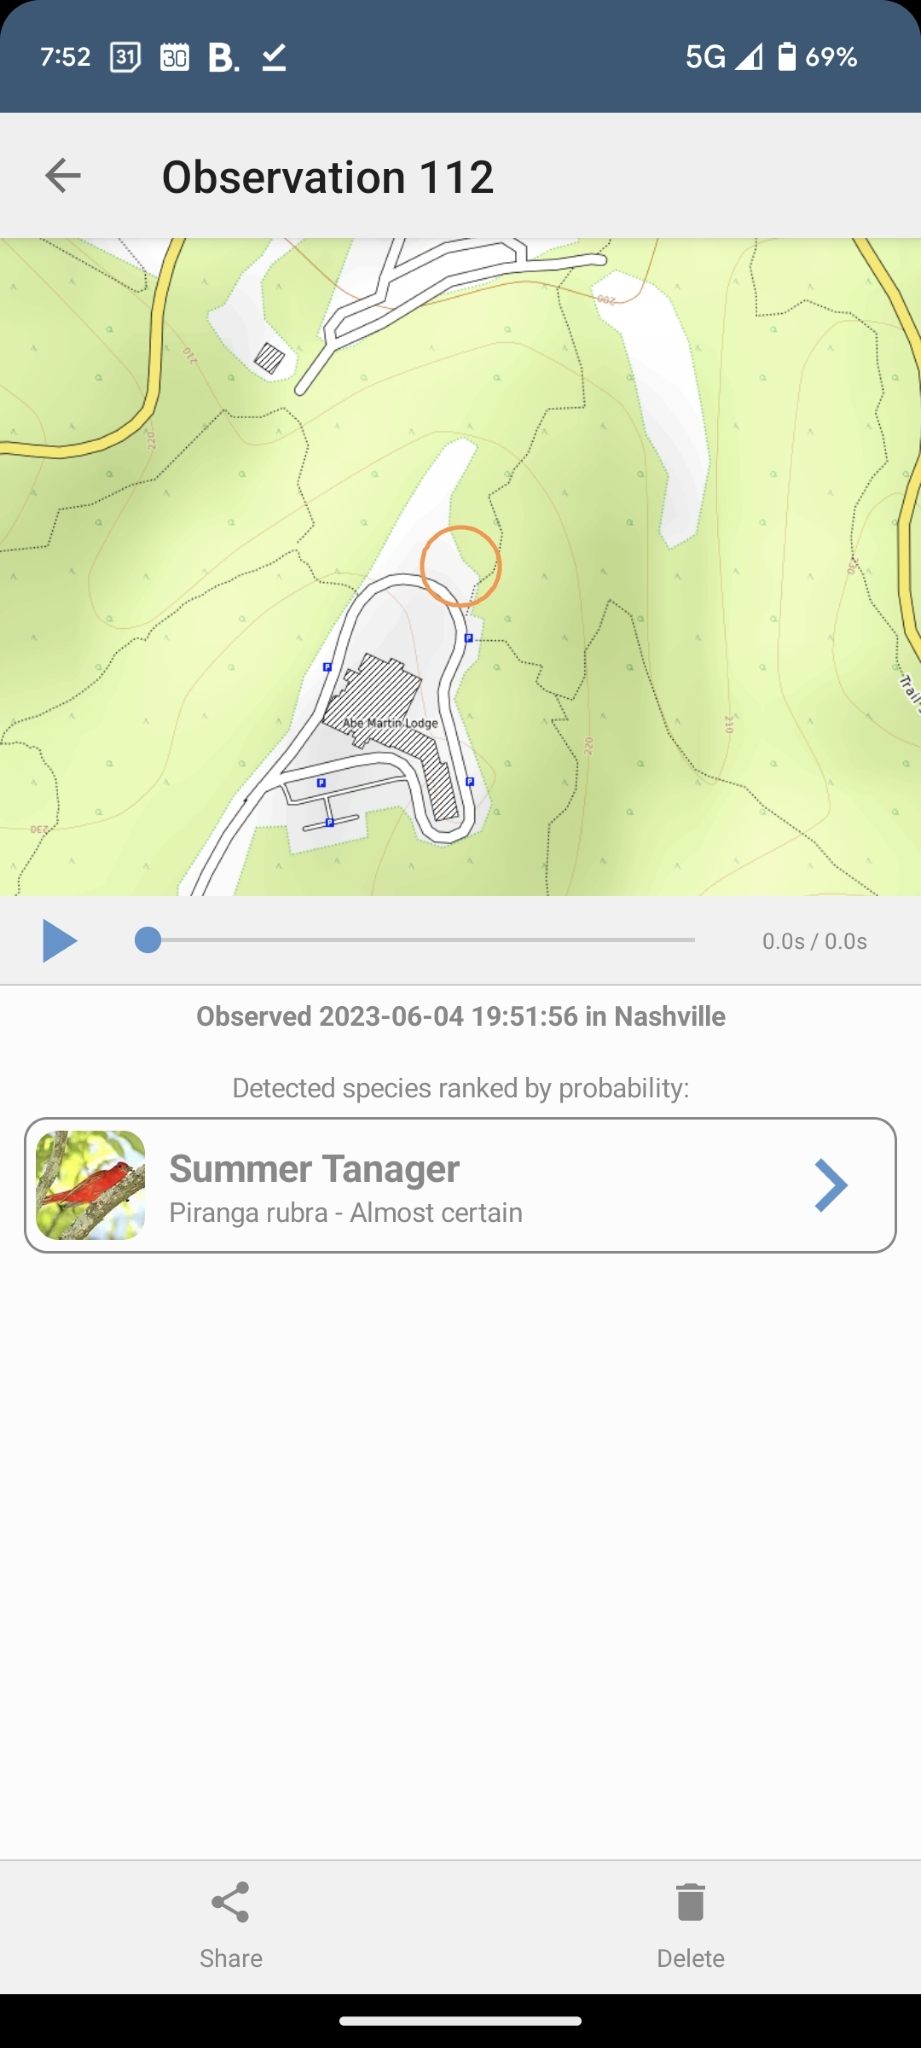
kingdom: Animalia
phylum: Chordata
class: Aves
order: Passeriformes
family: Cardinalidae
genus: Piranga
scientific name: Piranga rubra
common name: Summer tanager
